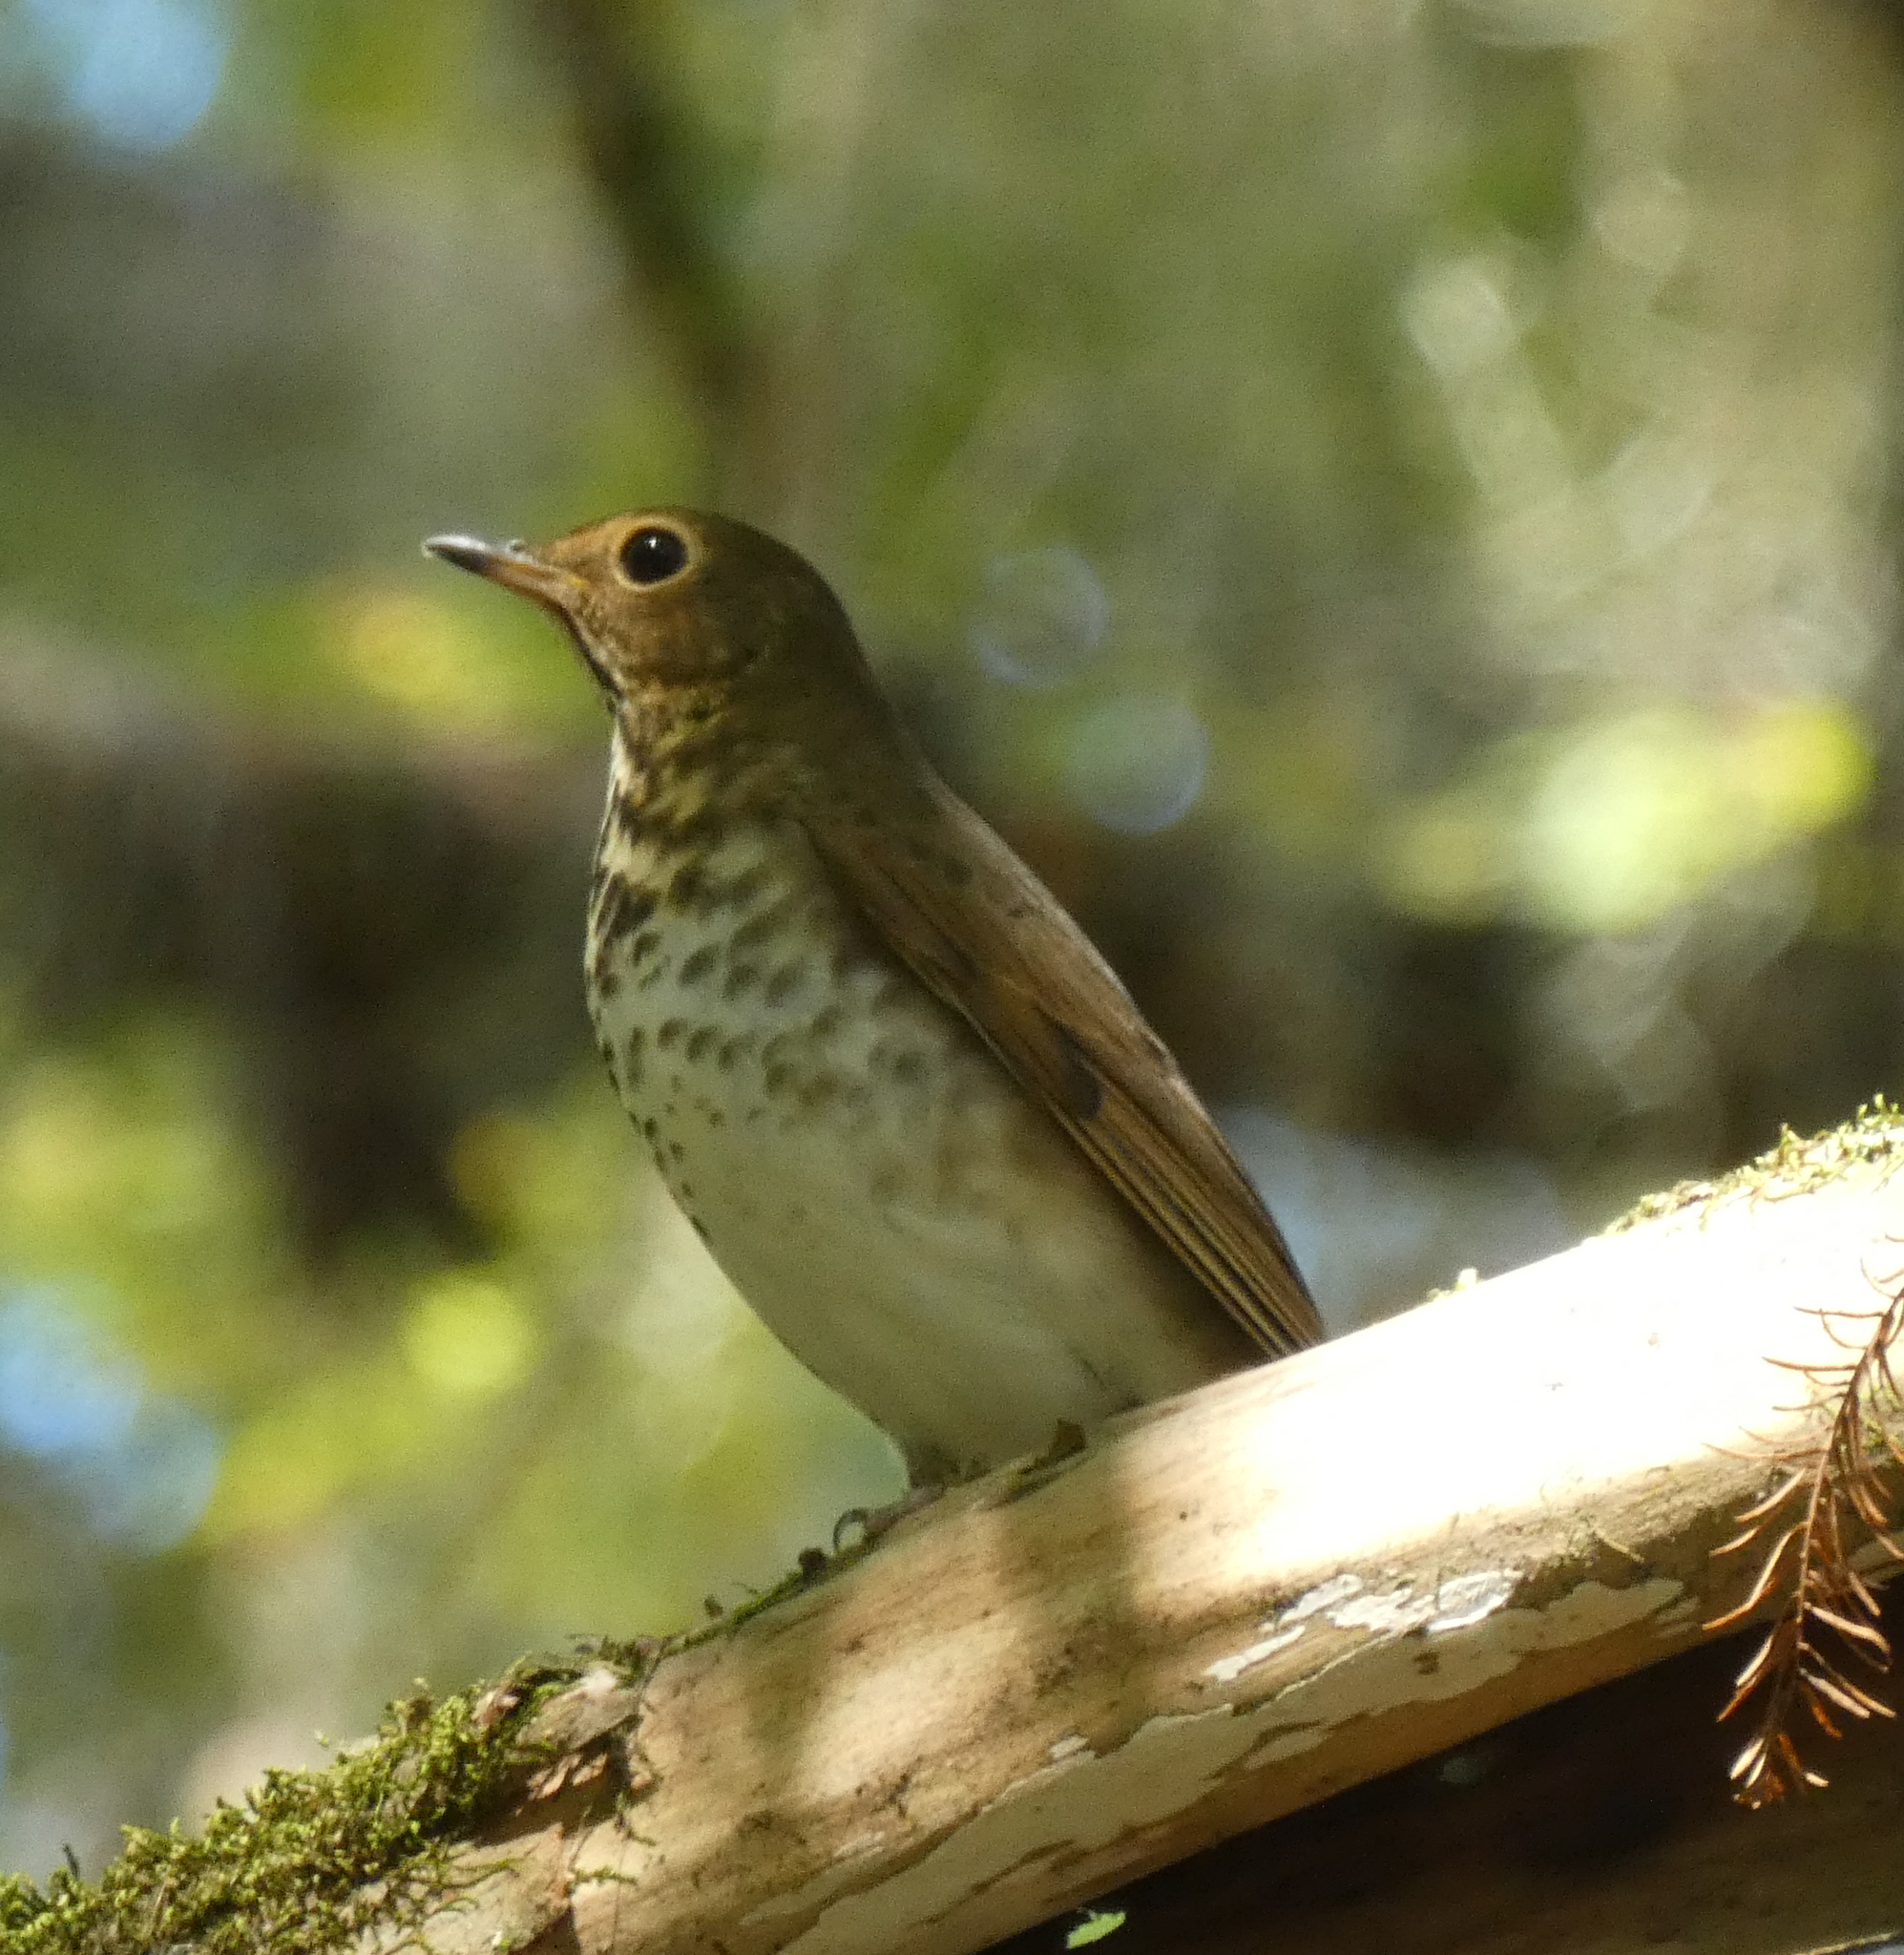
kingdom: Animalia
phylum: Chordata
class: Aves
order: Passeriformes
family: Turdidae
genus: Catharus
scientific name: Catharus ustulatus
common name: Swainson's thrush
